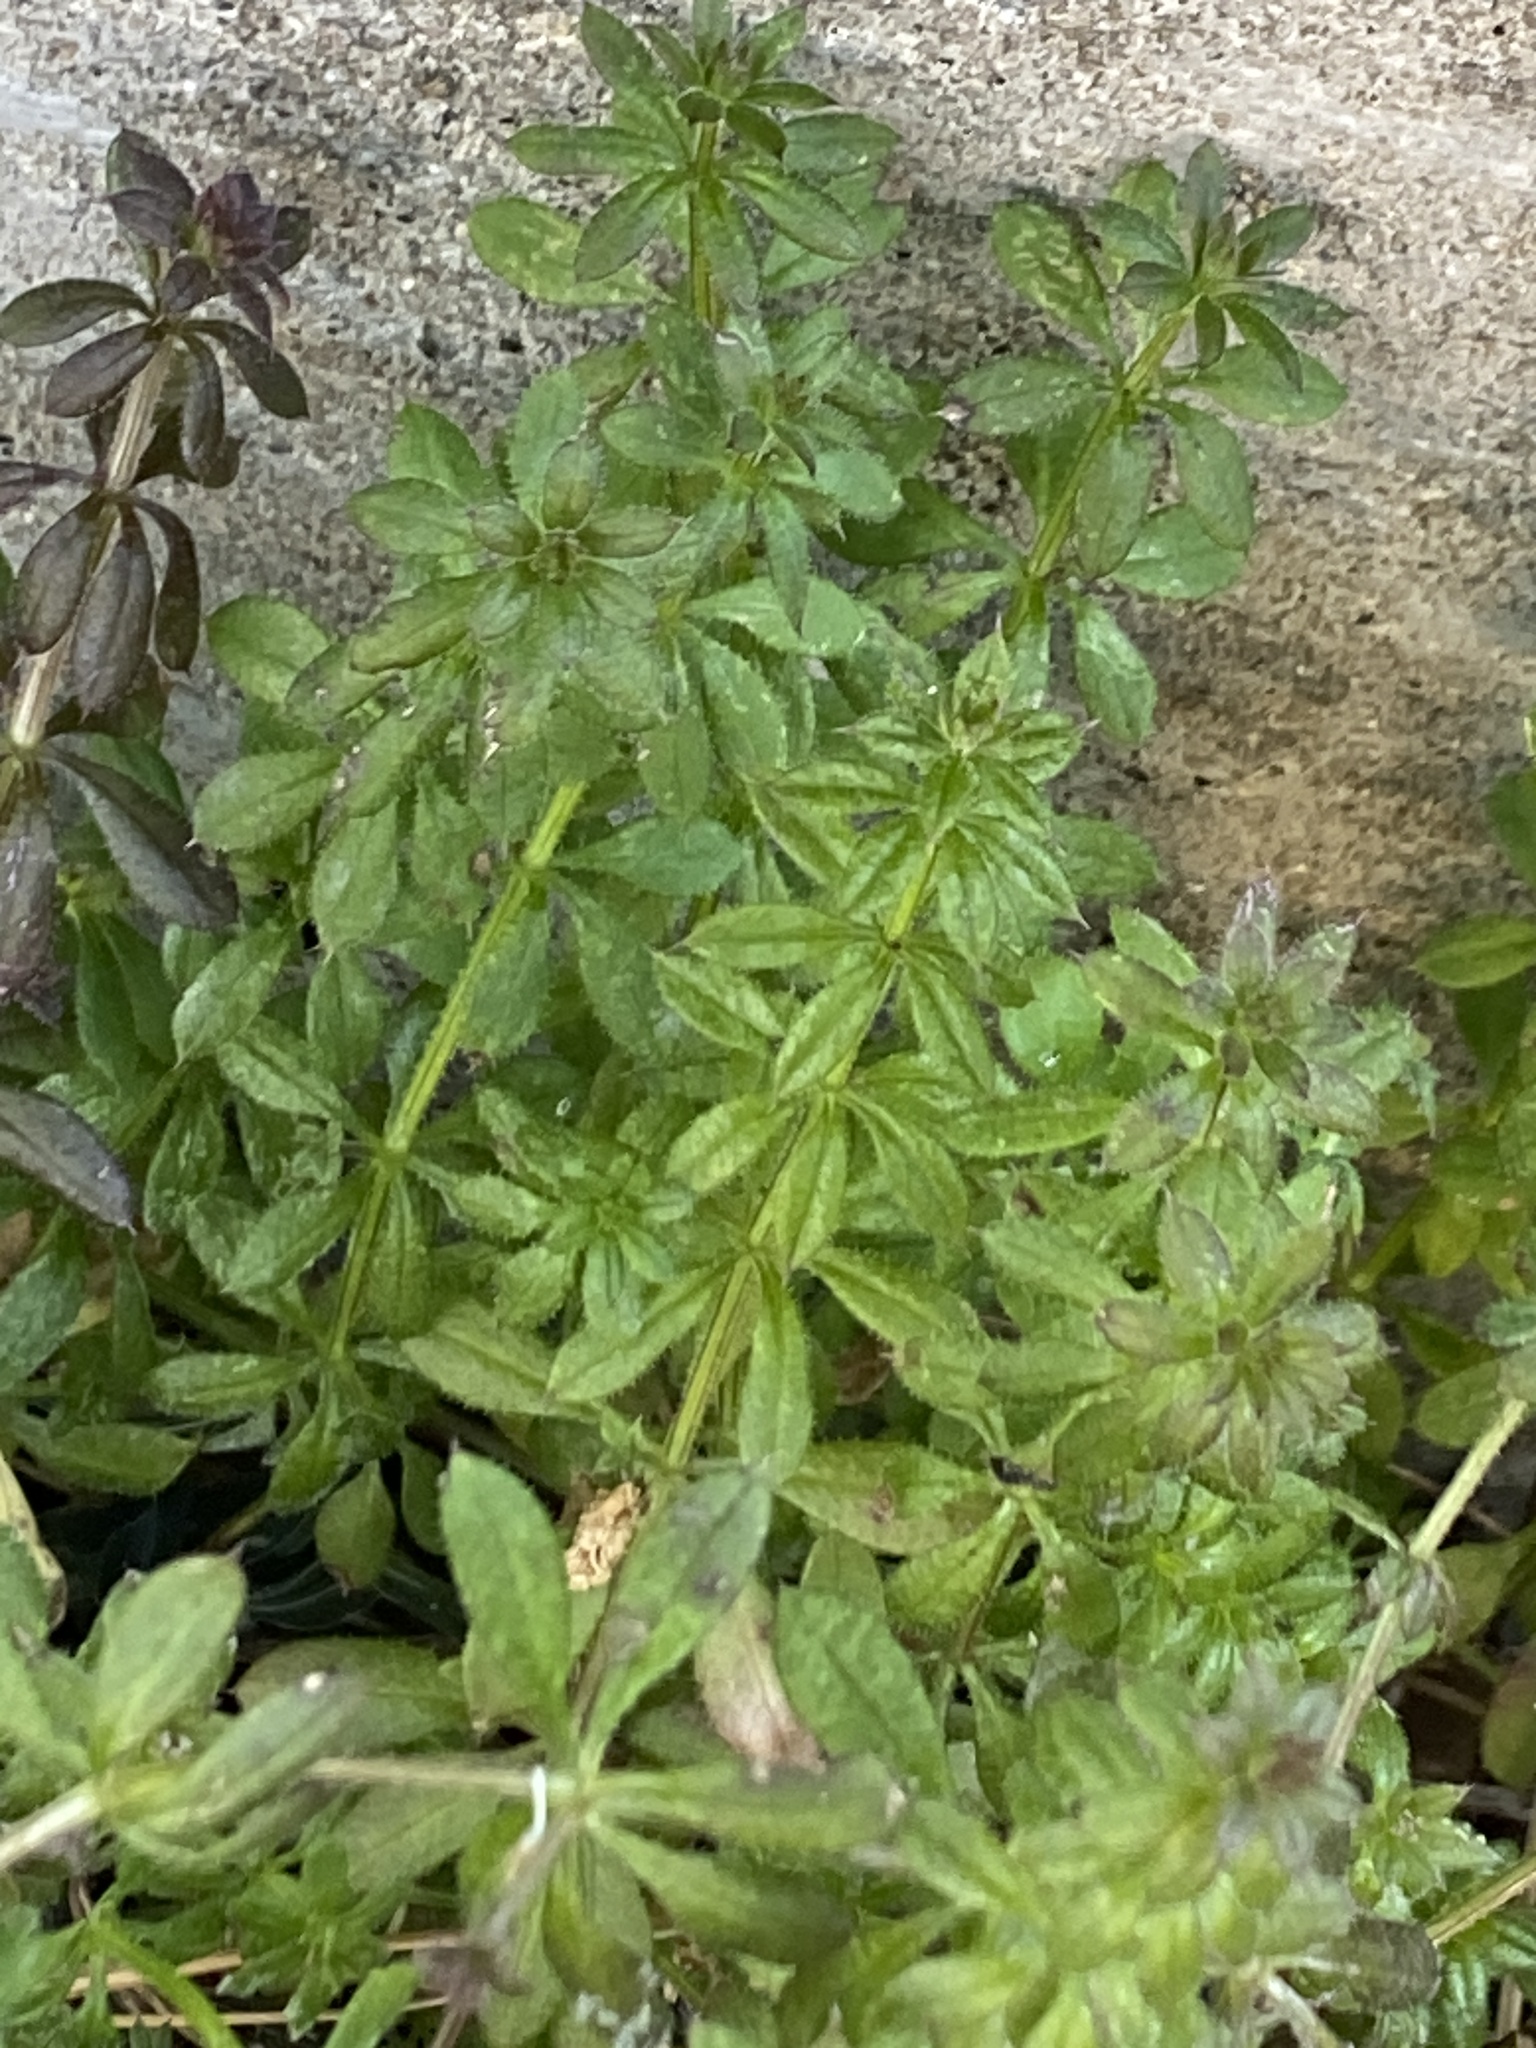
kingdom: Plantae
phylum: Tracheophyta
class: Magnoliopsida
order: Gentianales
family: Rubiaceae
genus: Galium
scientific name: Galium aparine
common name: Cleavers
